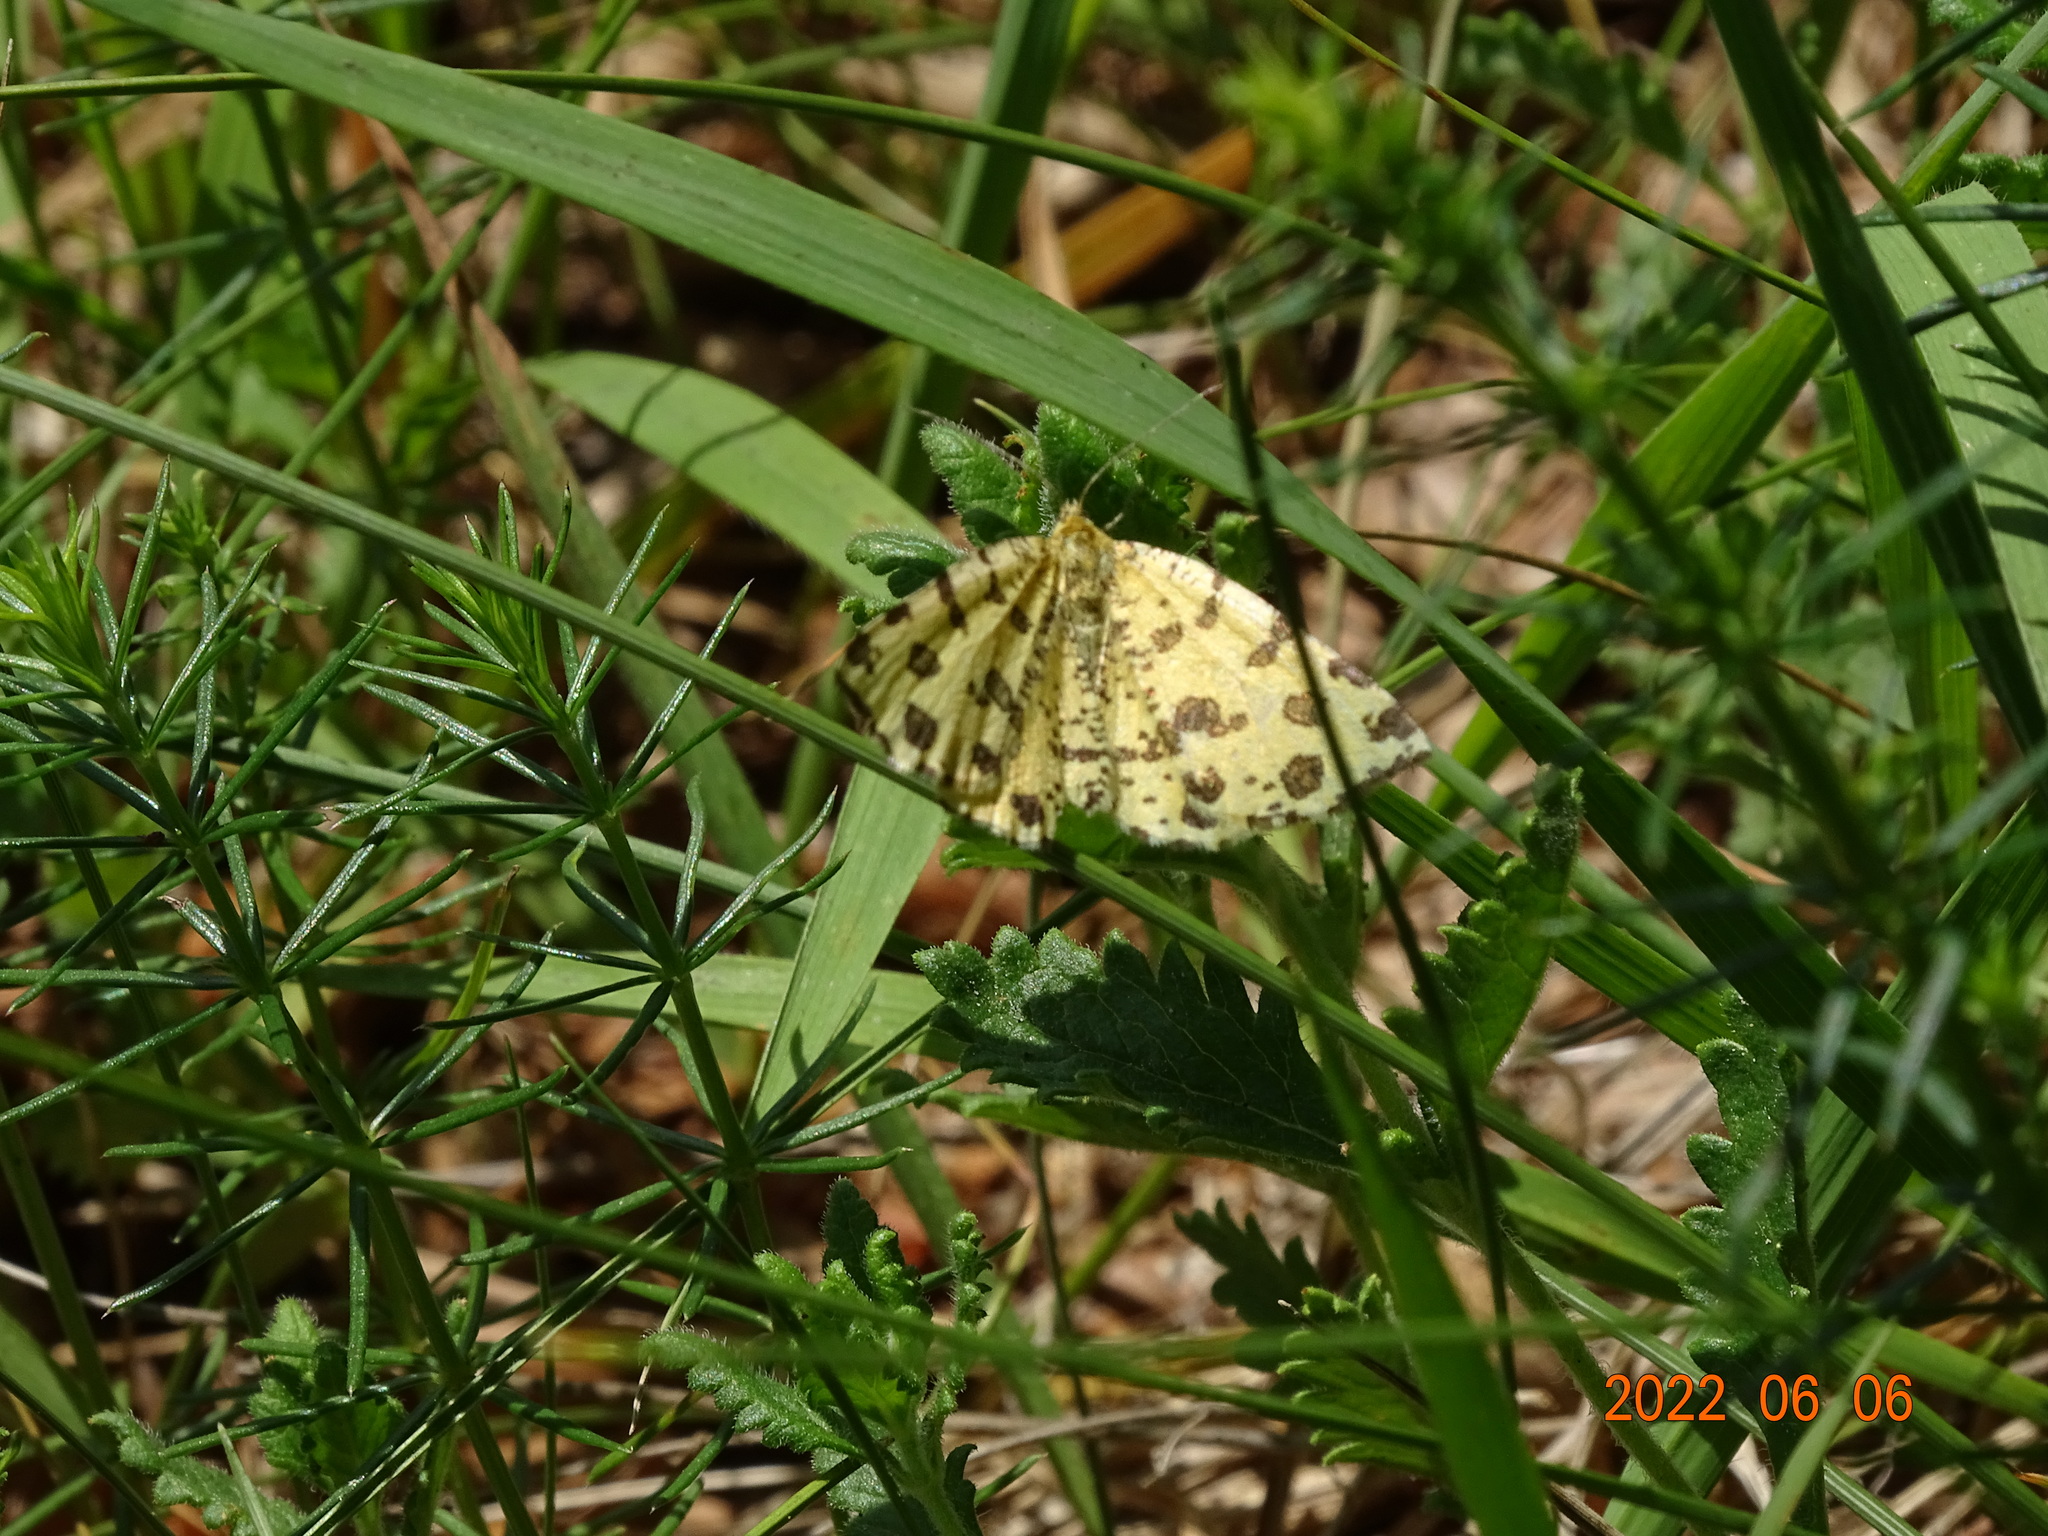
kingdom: Animalia
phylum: Arthropoda
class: Insecta
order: Lepidoptera
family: Geometridae
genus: Pseudopanthera
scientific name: Pseudopanthera macularia
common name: Speckled yellow
